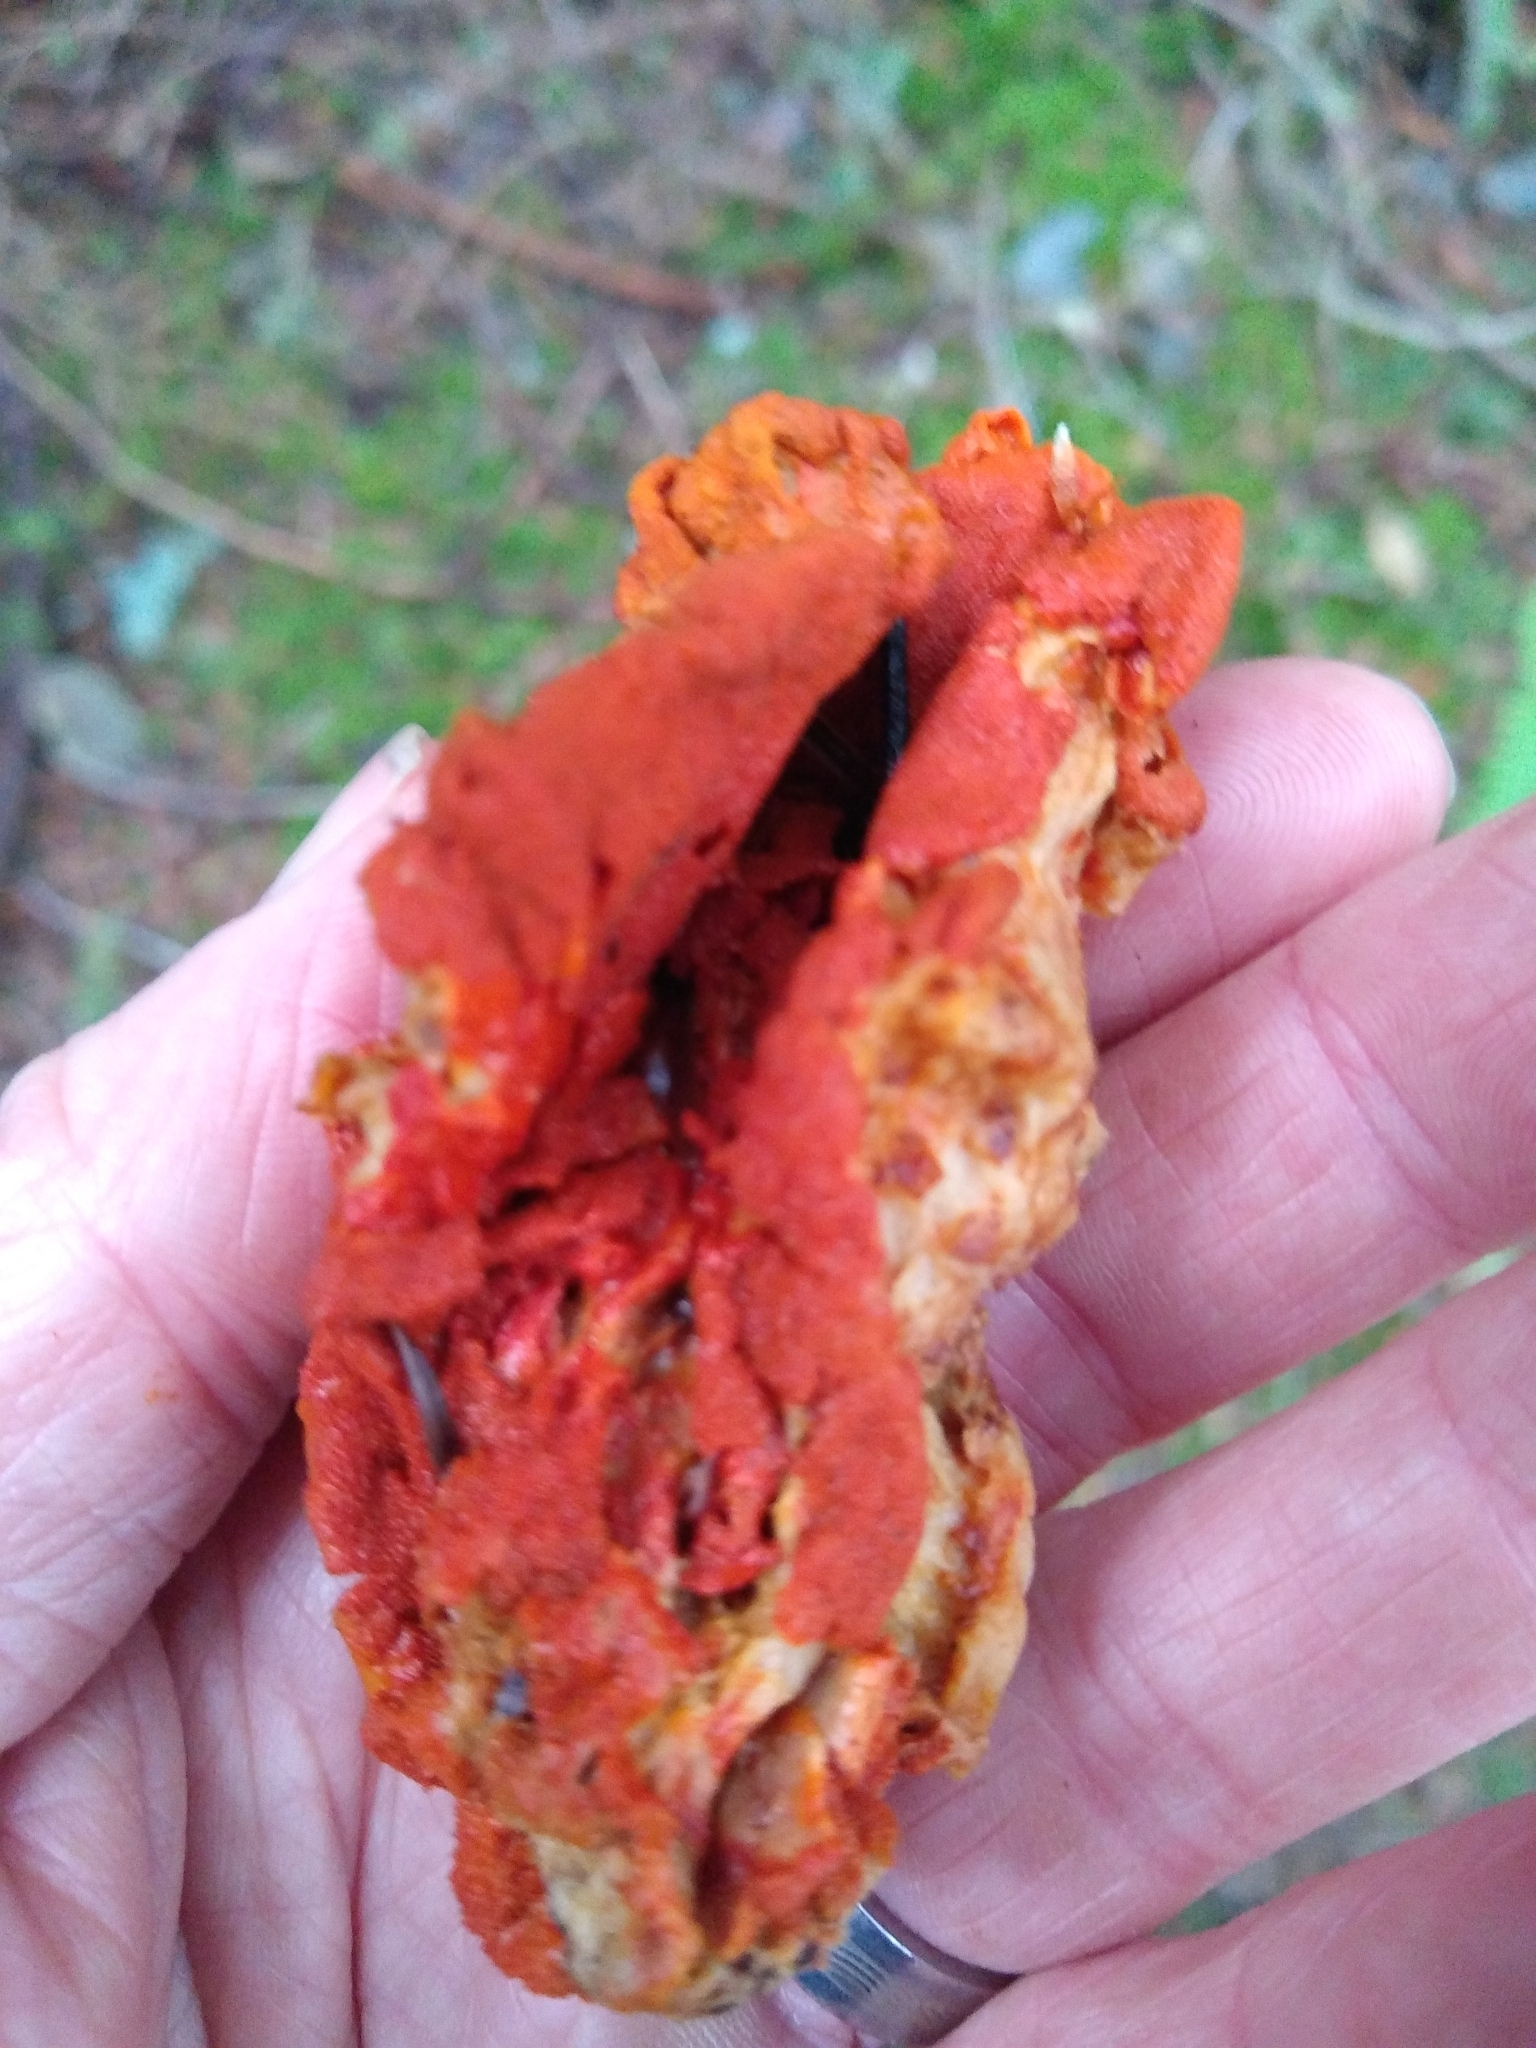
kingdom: Fungi
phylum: Ascomycota
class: Sordariomycetes
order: Hypocreales
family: Hypocreaceae
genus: Hypomyces
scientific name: Hypomyces lactifluorum
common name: Lobster mushroom
